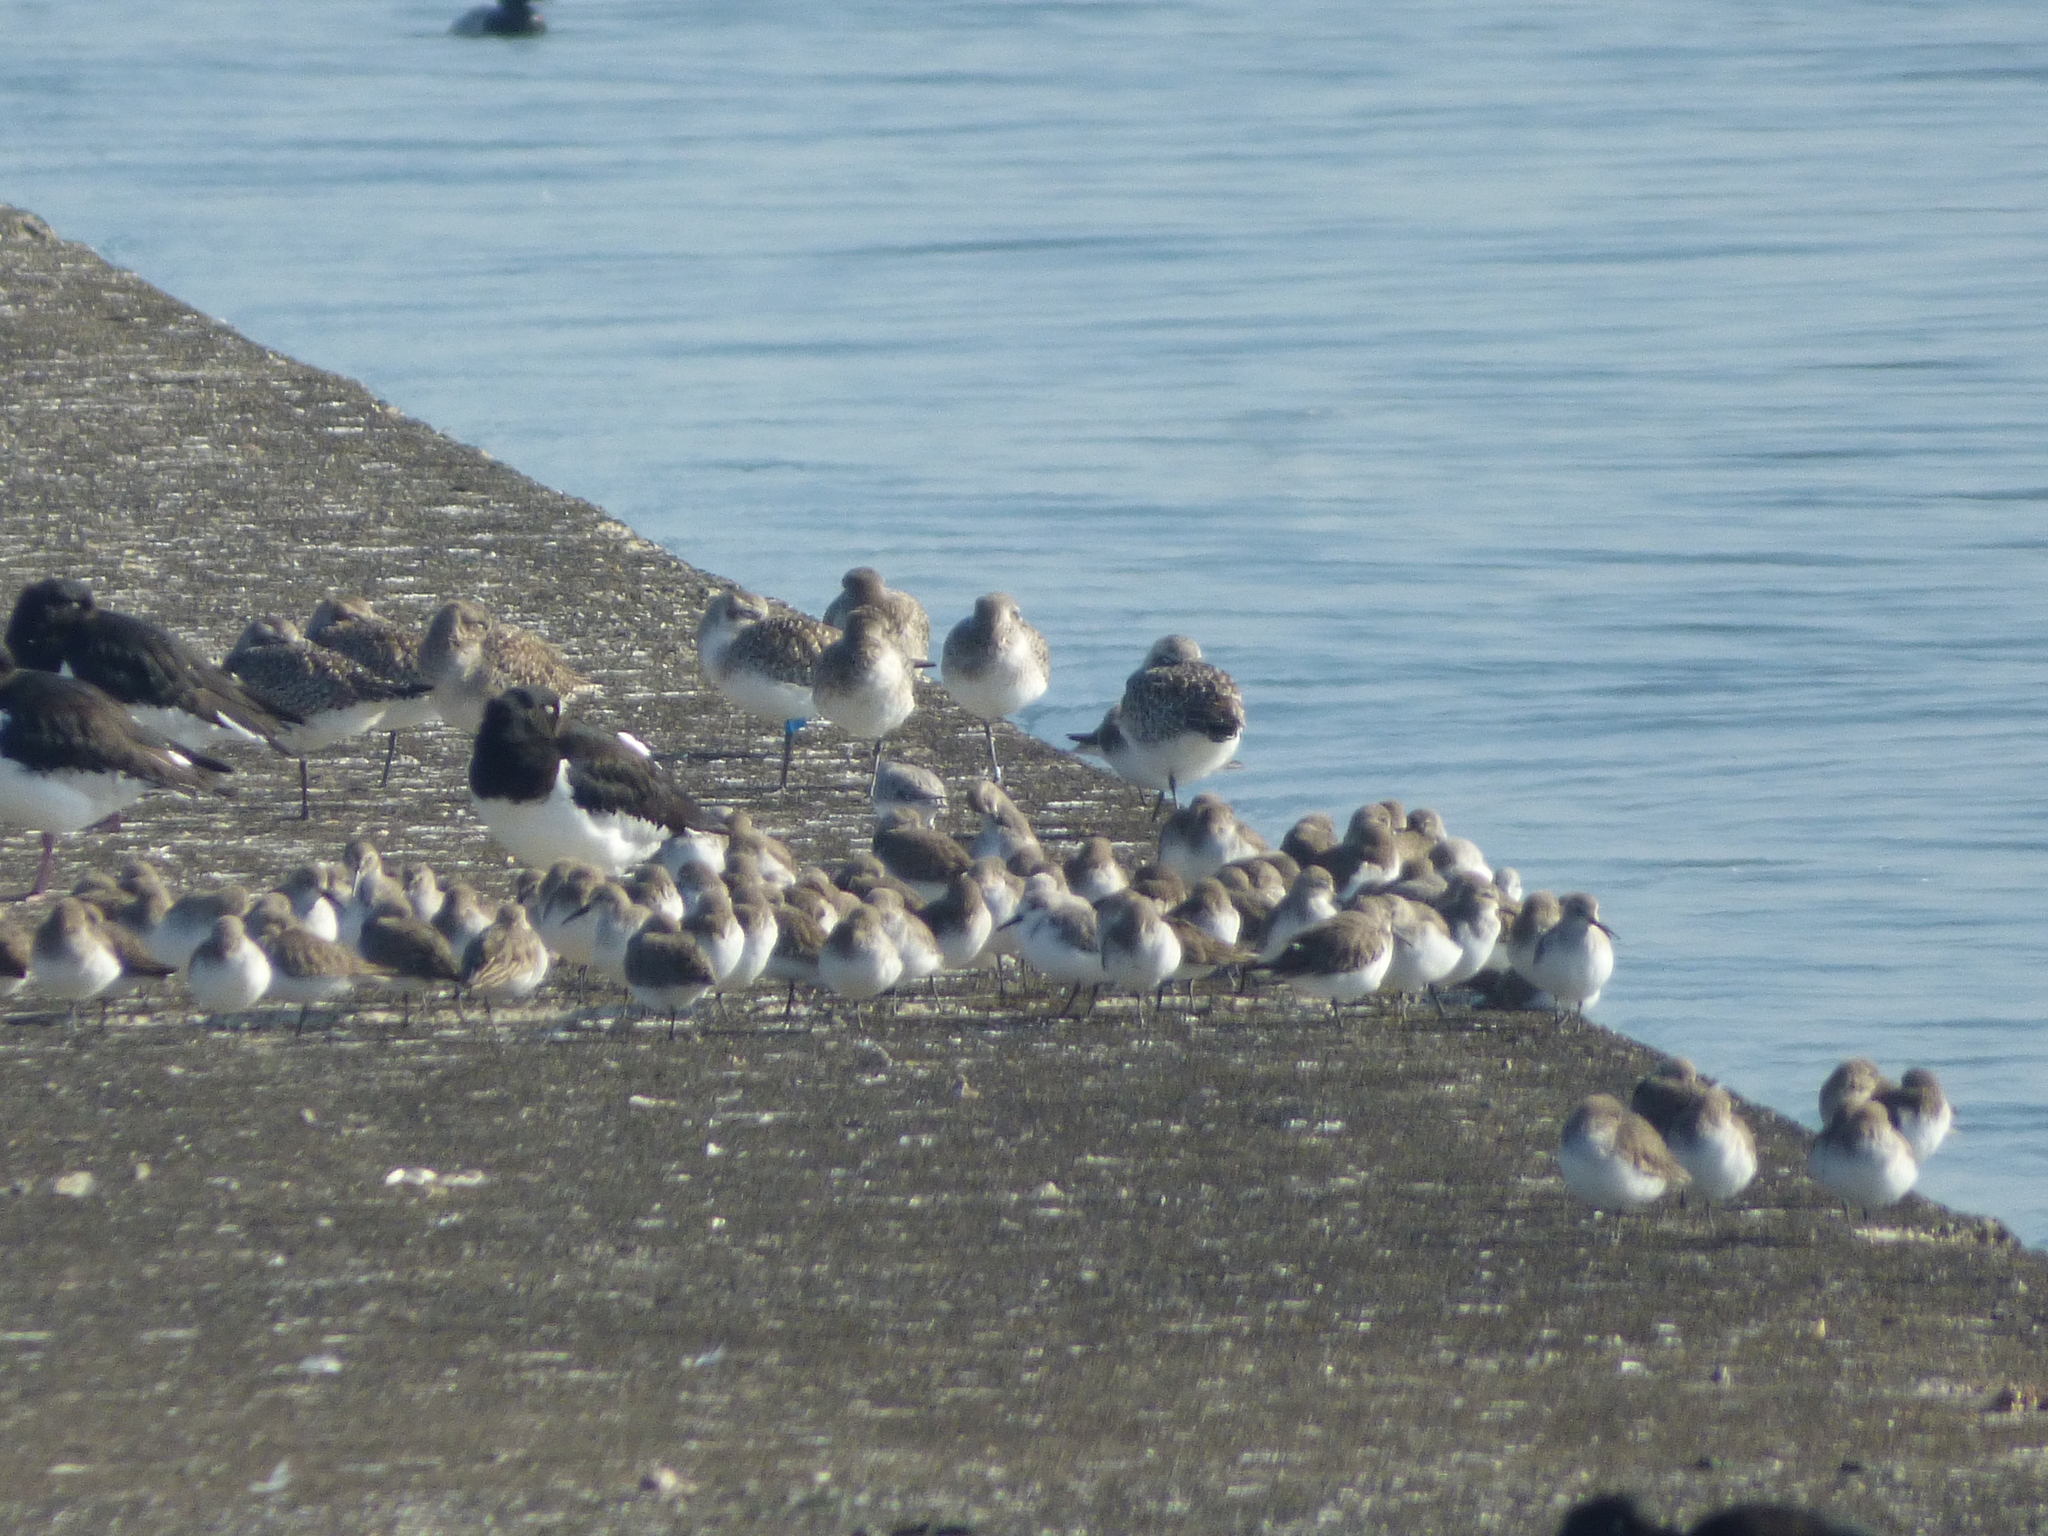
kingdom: Animalia
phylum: Chordata
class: Aves
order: Charadriiformes
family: Charadriidae
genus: Pluvialis
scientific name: Pluvialis squatarola
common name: Grey plover
